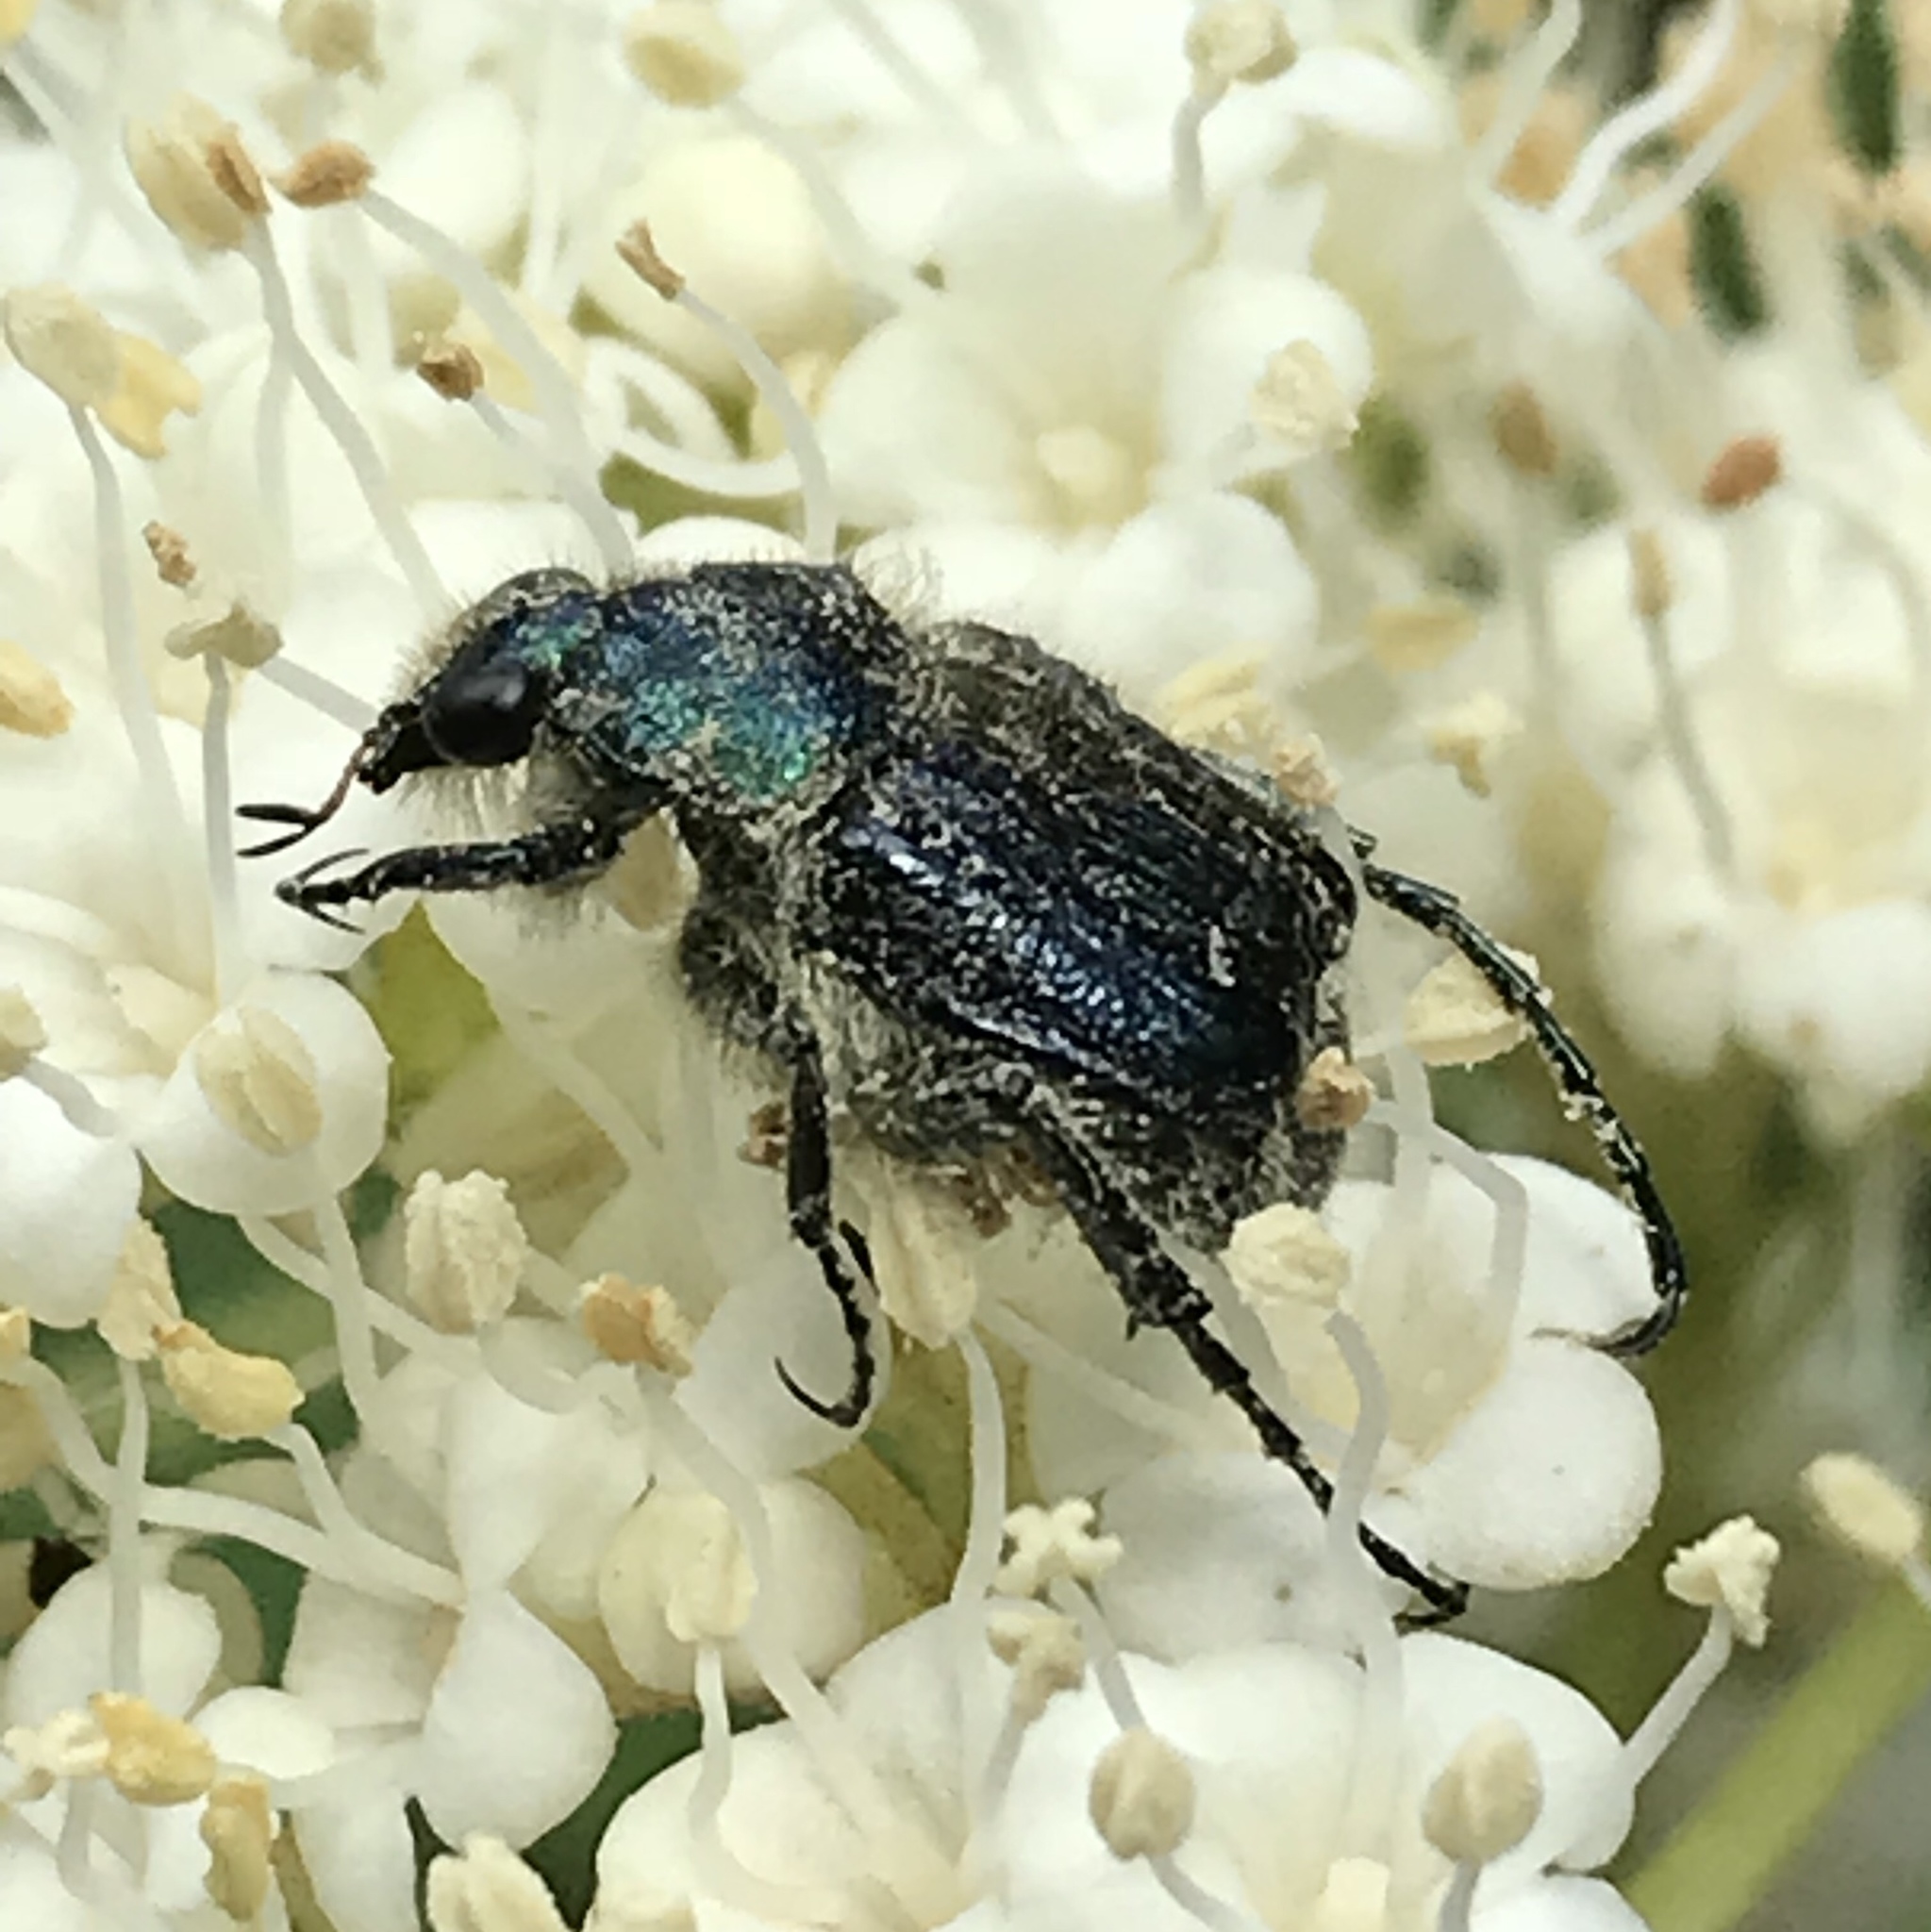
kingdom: Animalia
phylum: Arthropoda
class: Insecta
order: Coleoptera
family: Scarabaeidae
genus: Trichiotinus
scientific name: Trichiotinus lunulatus
